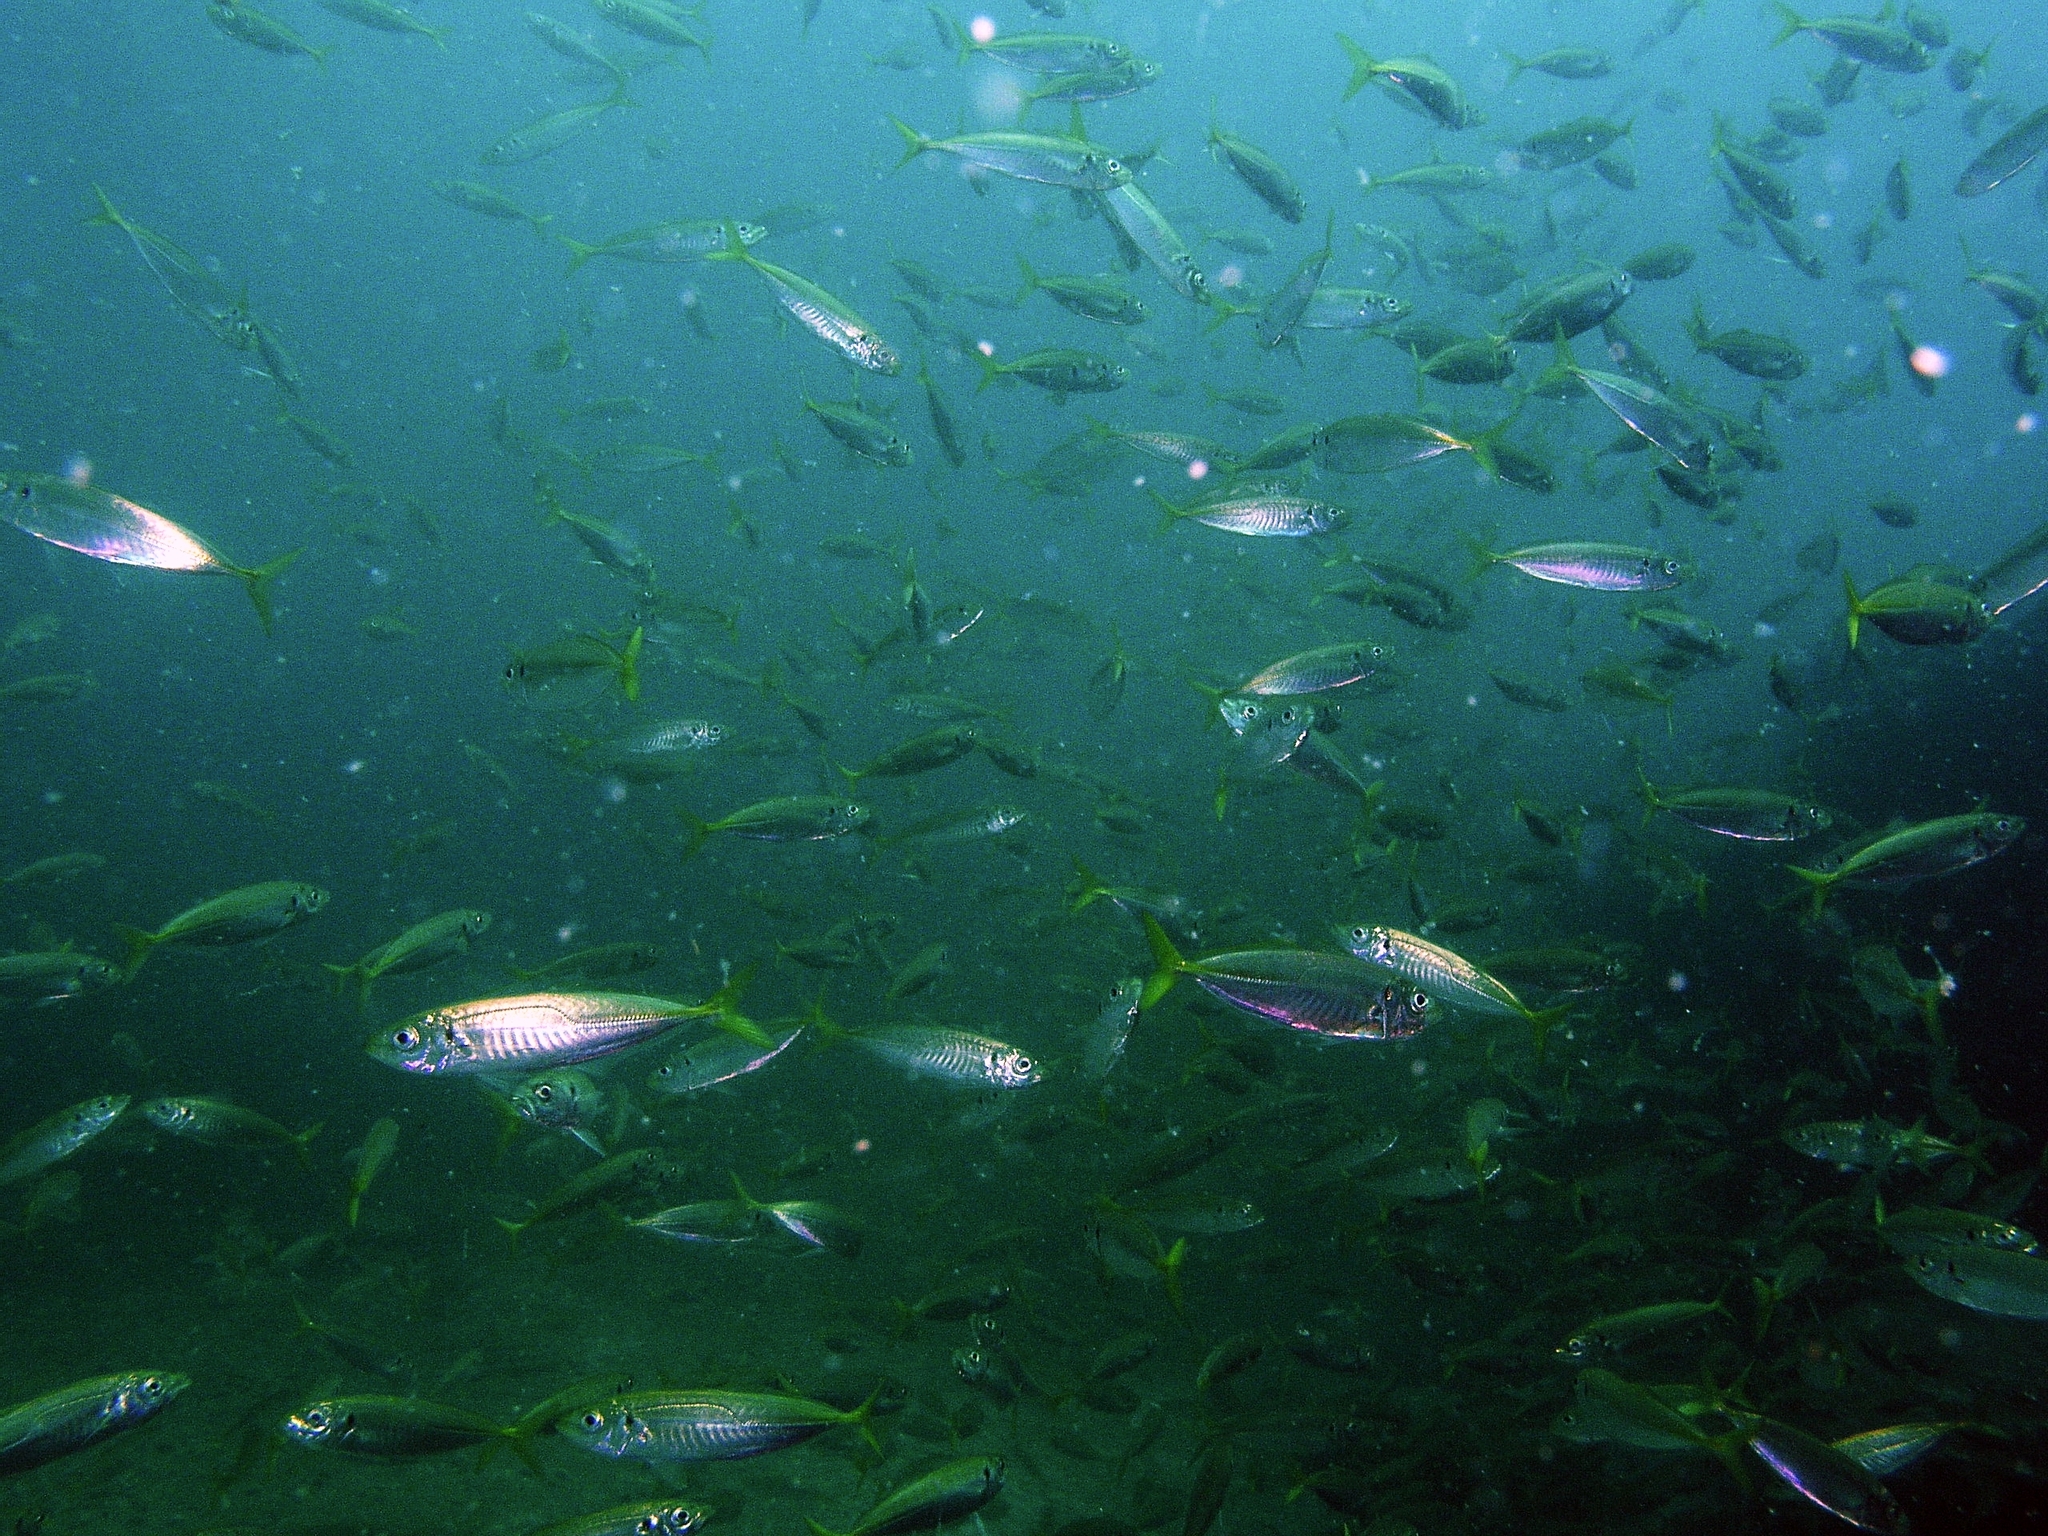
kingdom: Animalia
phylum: Chordata
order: Perciformes
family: Carangidae
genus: Trachurus
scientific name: Trachurus novaezelandiae
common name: Yellowtail horse mackerel
